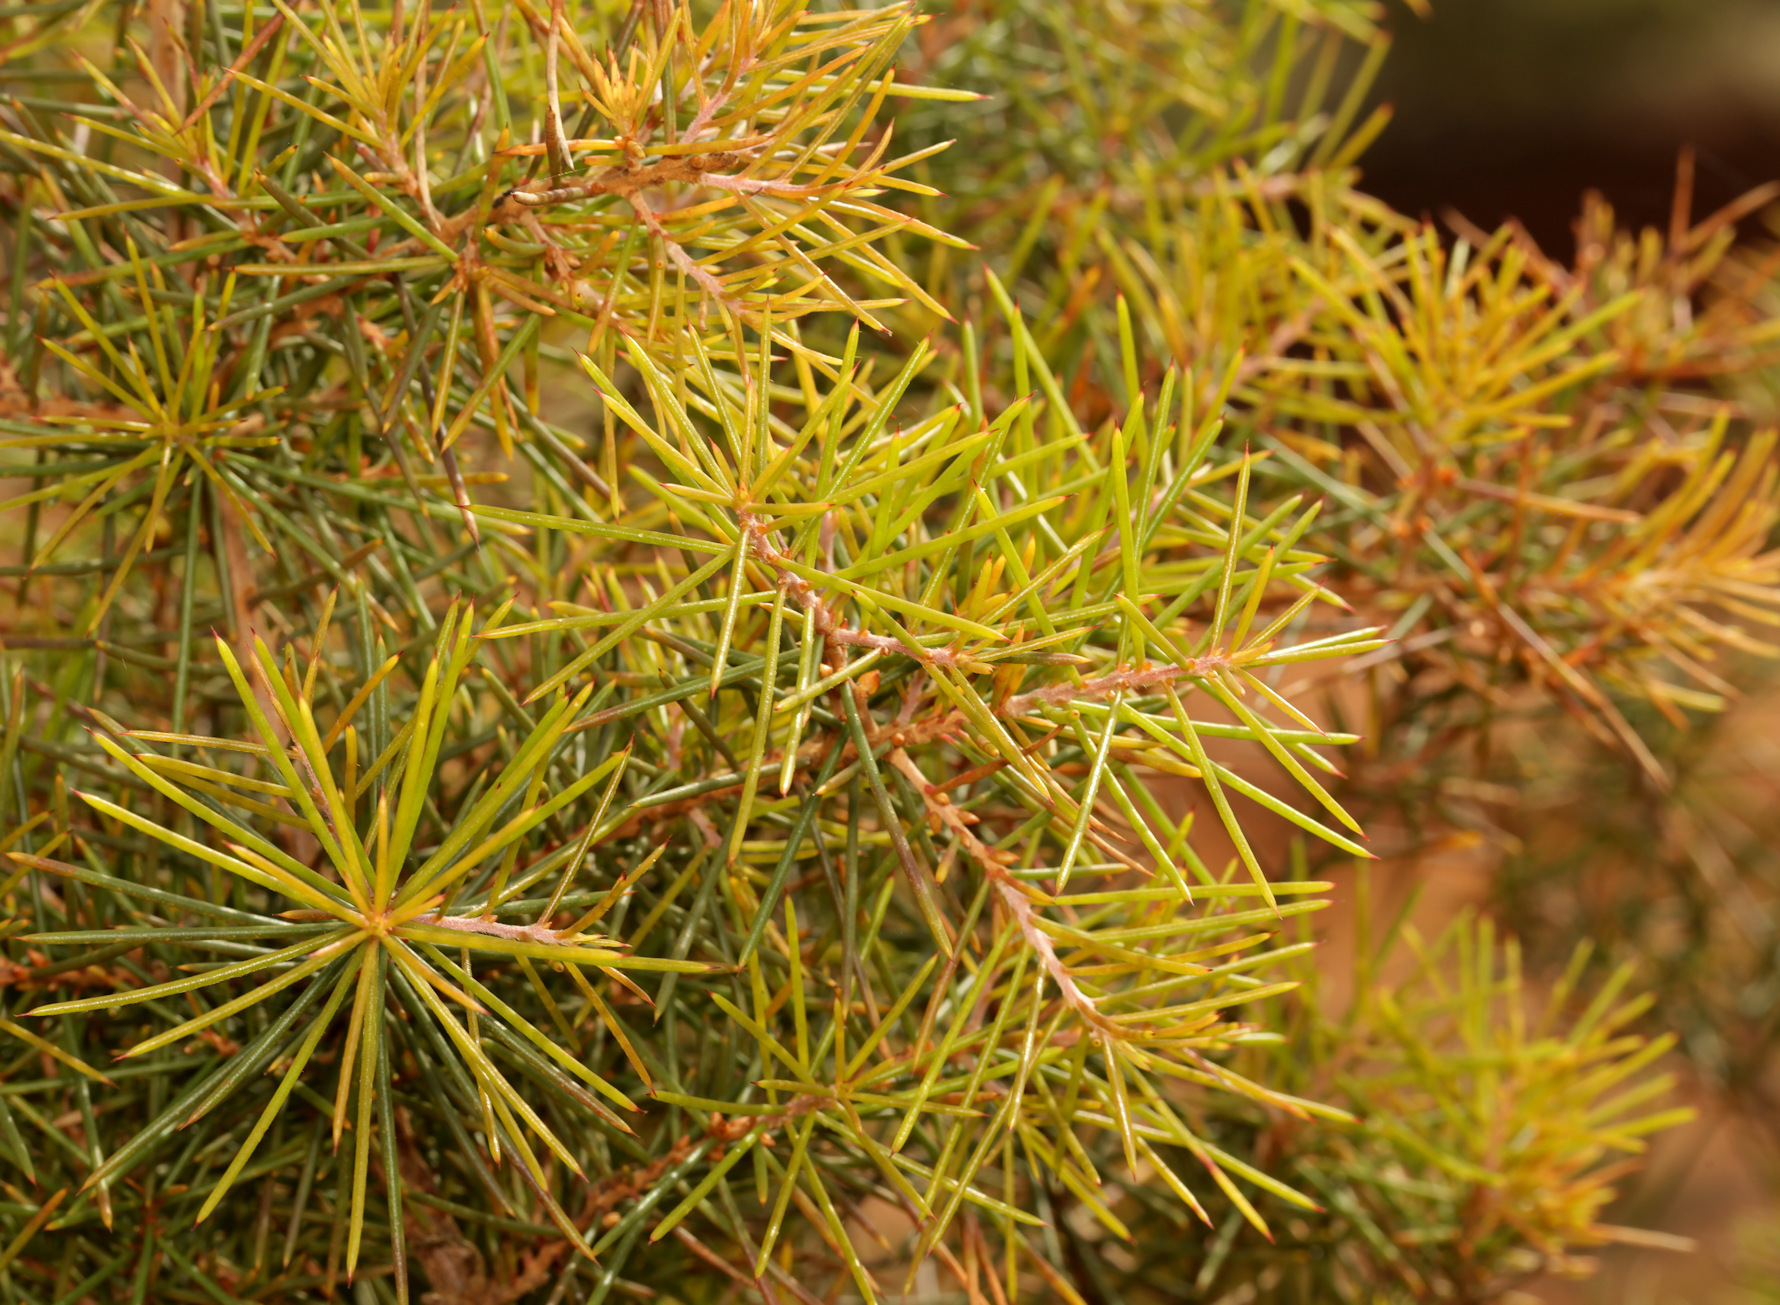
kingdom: Plantae
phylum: Tracheophyta
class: Magnoliopsida
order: Proteales
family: Proteaceae
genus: Hakea
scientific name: Hakea sericea
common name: Needle bush
